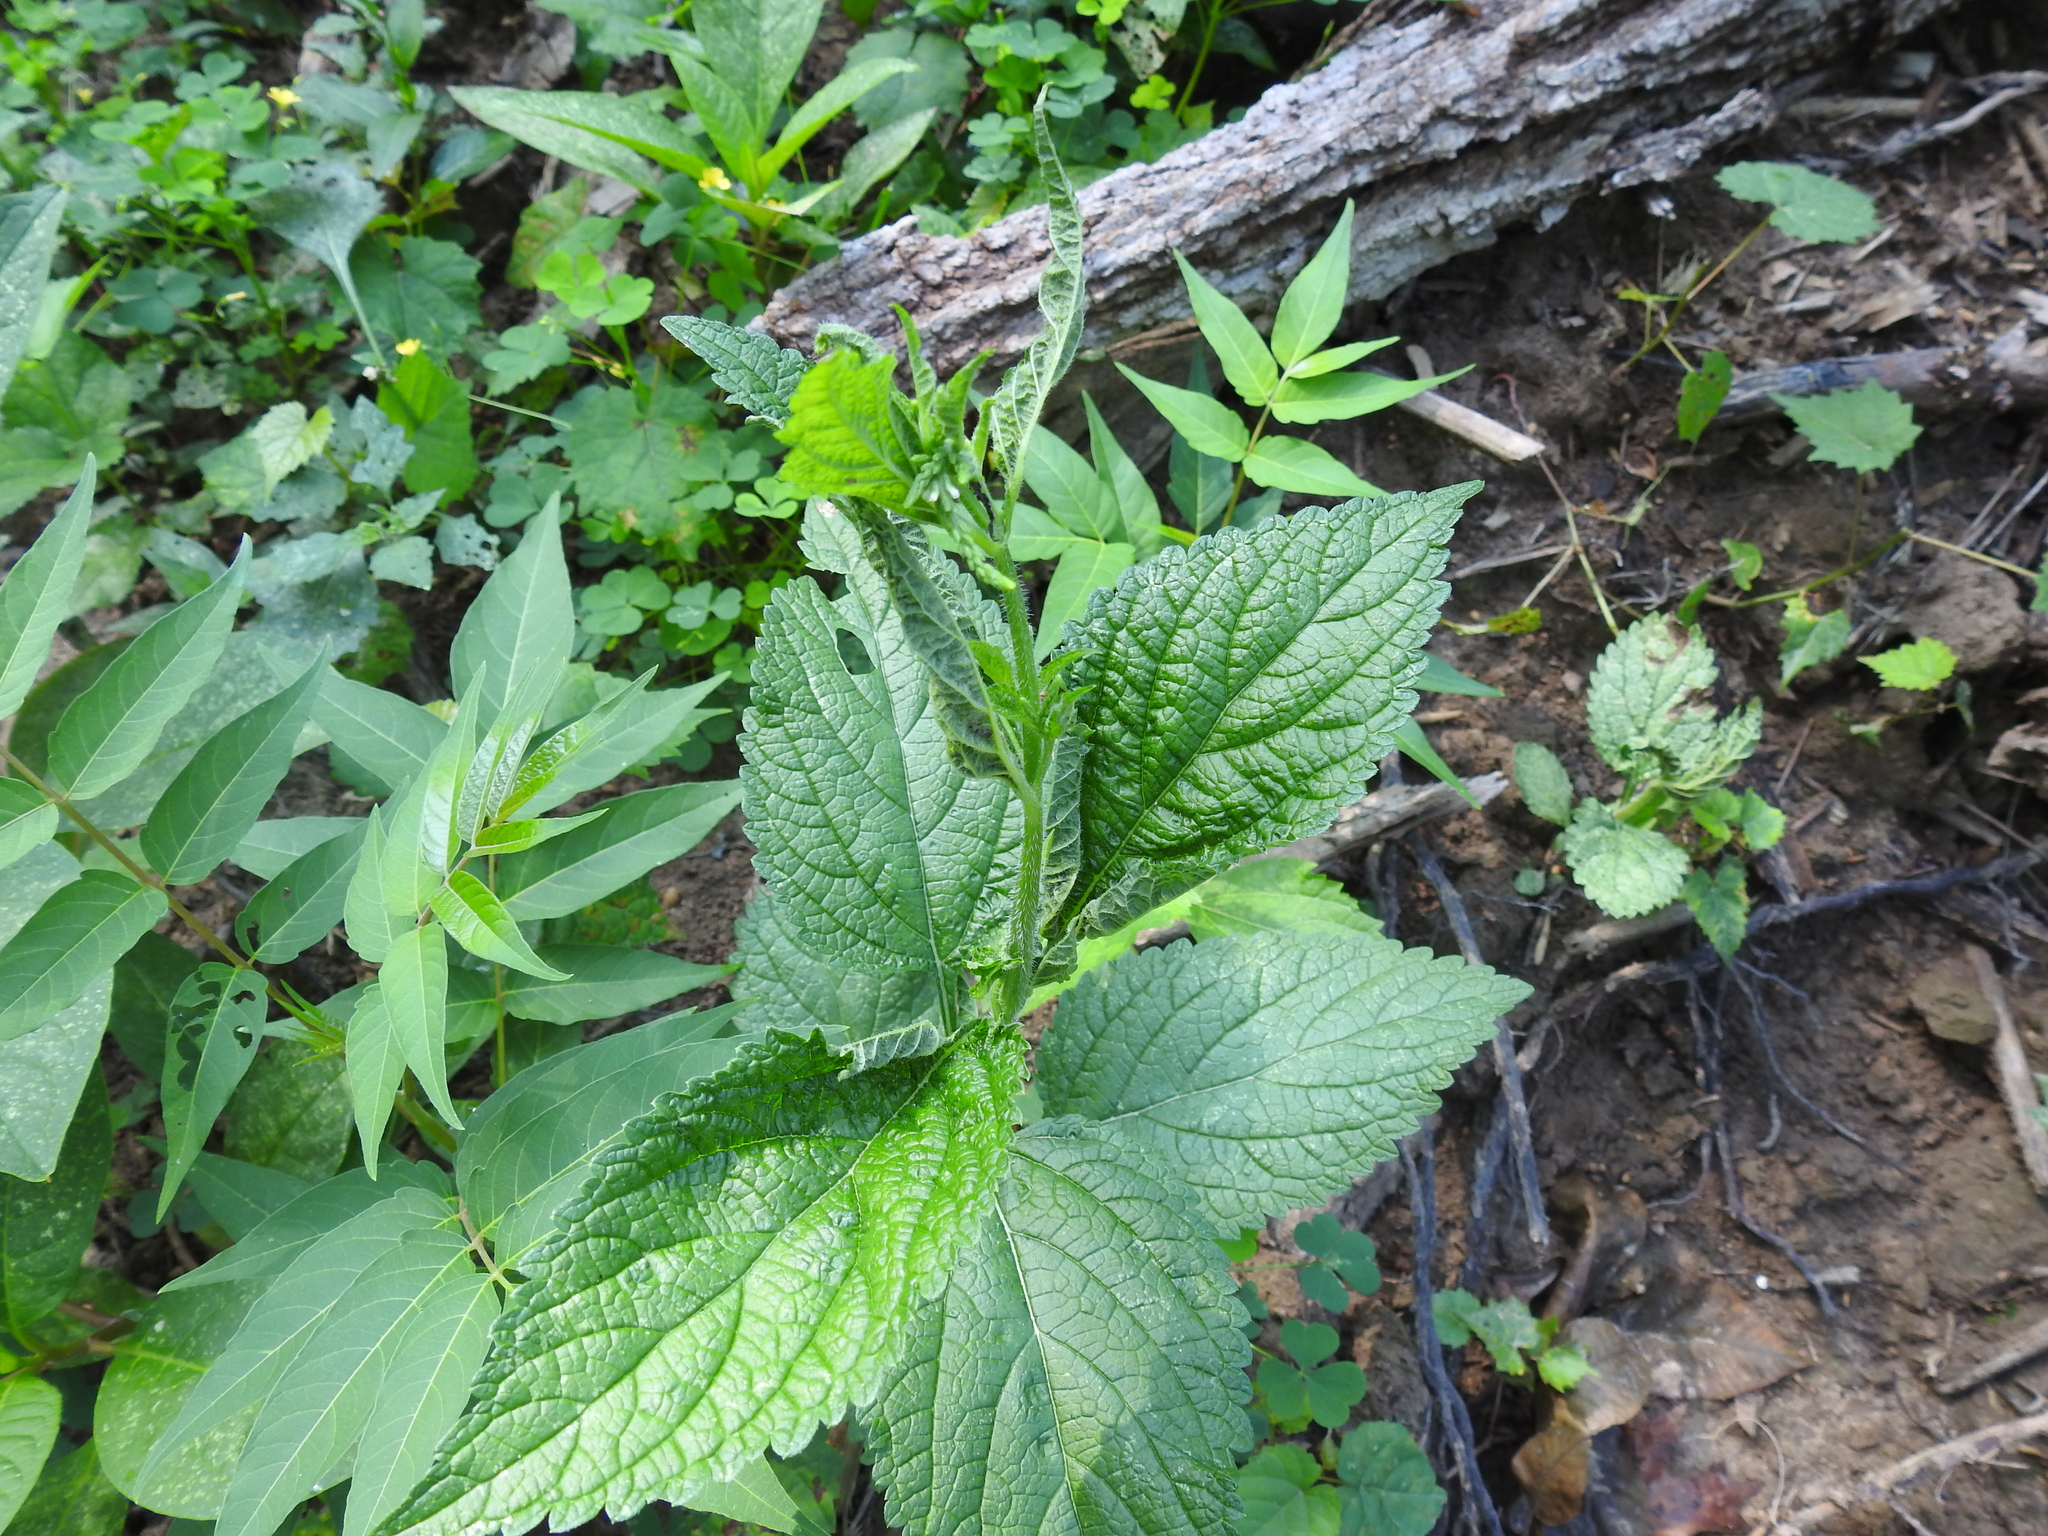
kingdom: Plantae
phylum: Tracheophyta
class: Magnoliopsida
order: Lamiales
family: Verbenaceae
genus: Verbena
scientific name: Verbena urticifolia
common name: Nettle-leaved vervain
